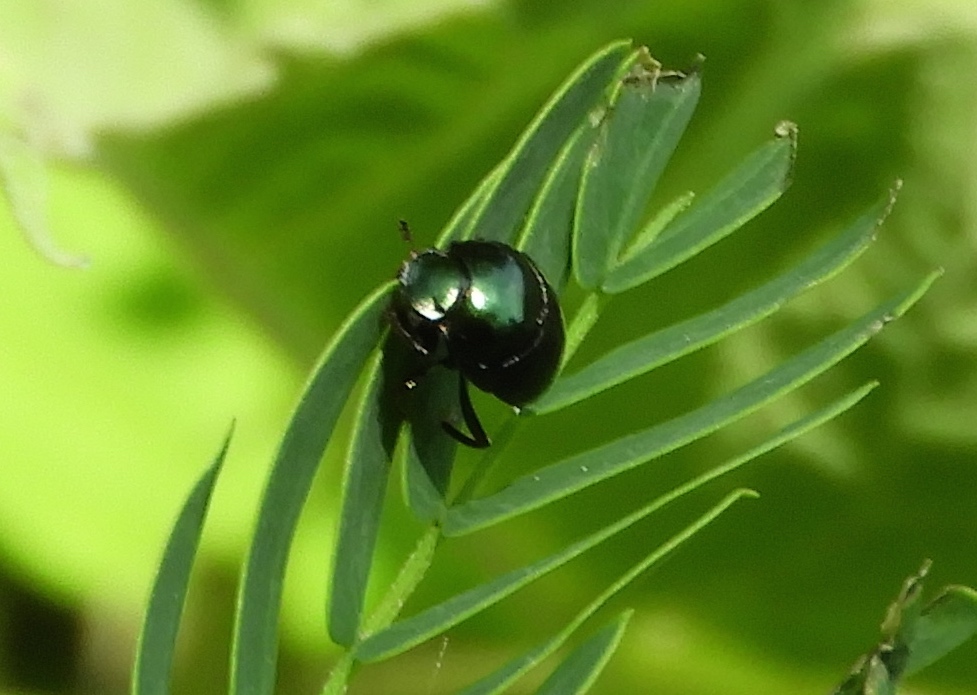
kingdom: Animalia
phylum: Arthropoda
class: Insecta
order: Coleoptera
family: Scarabaeidae
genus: Canthon
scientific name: Canthon
